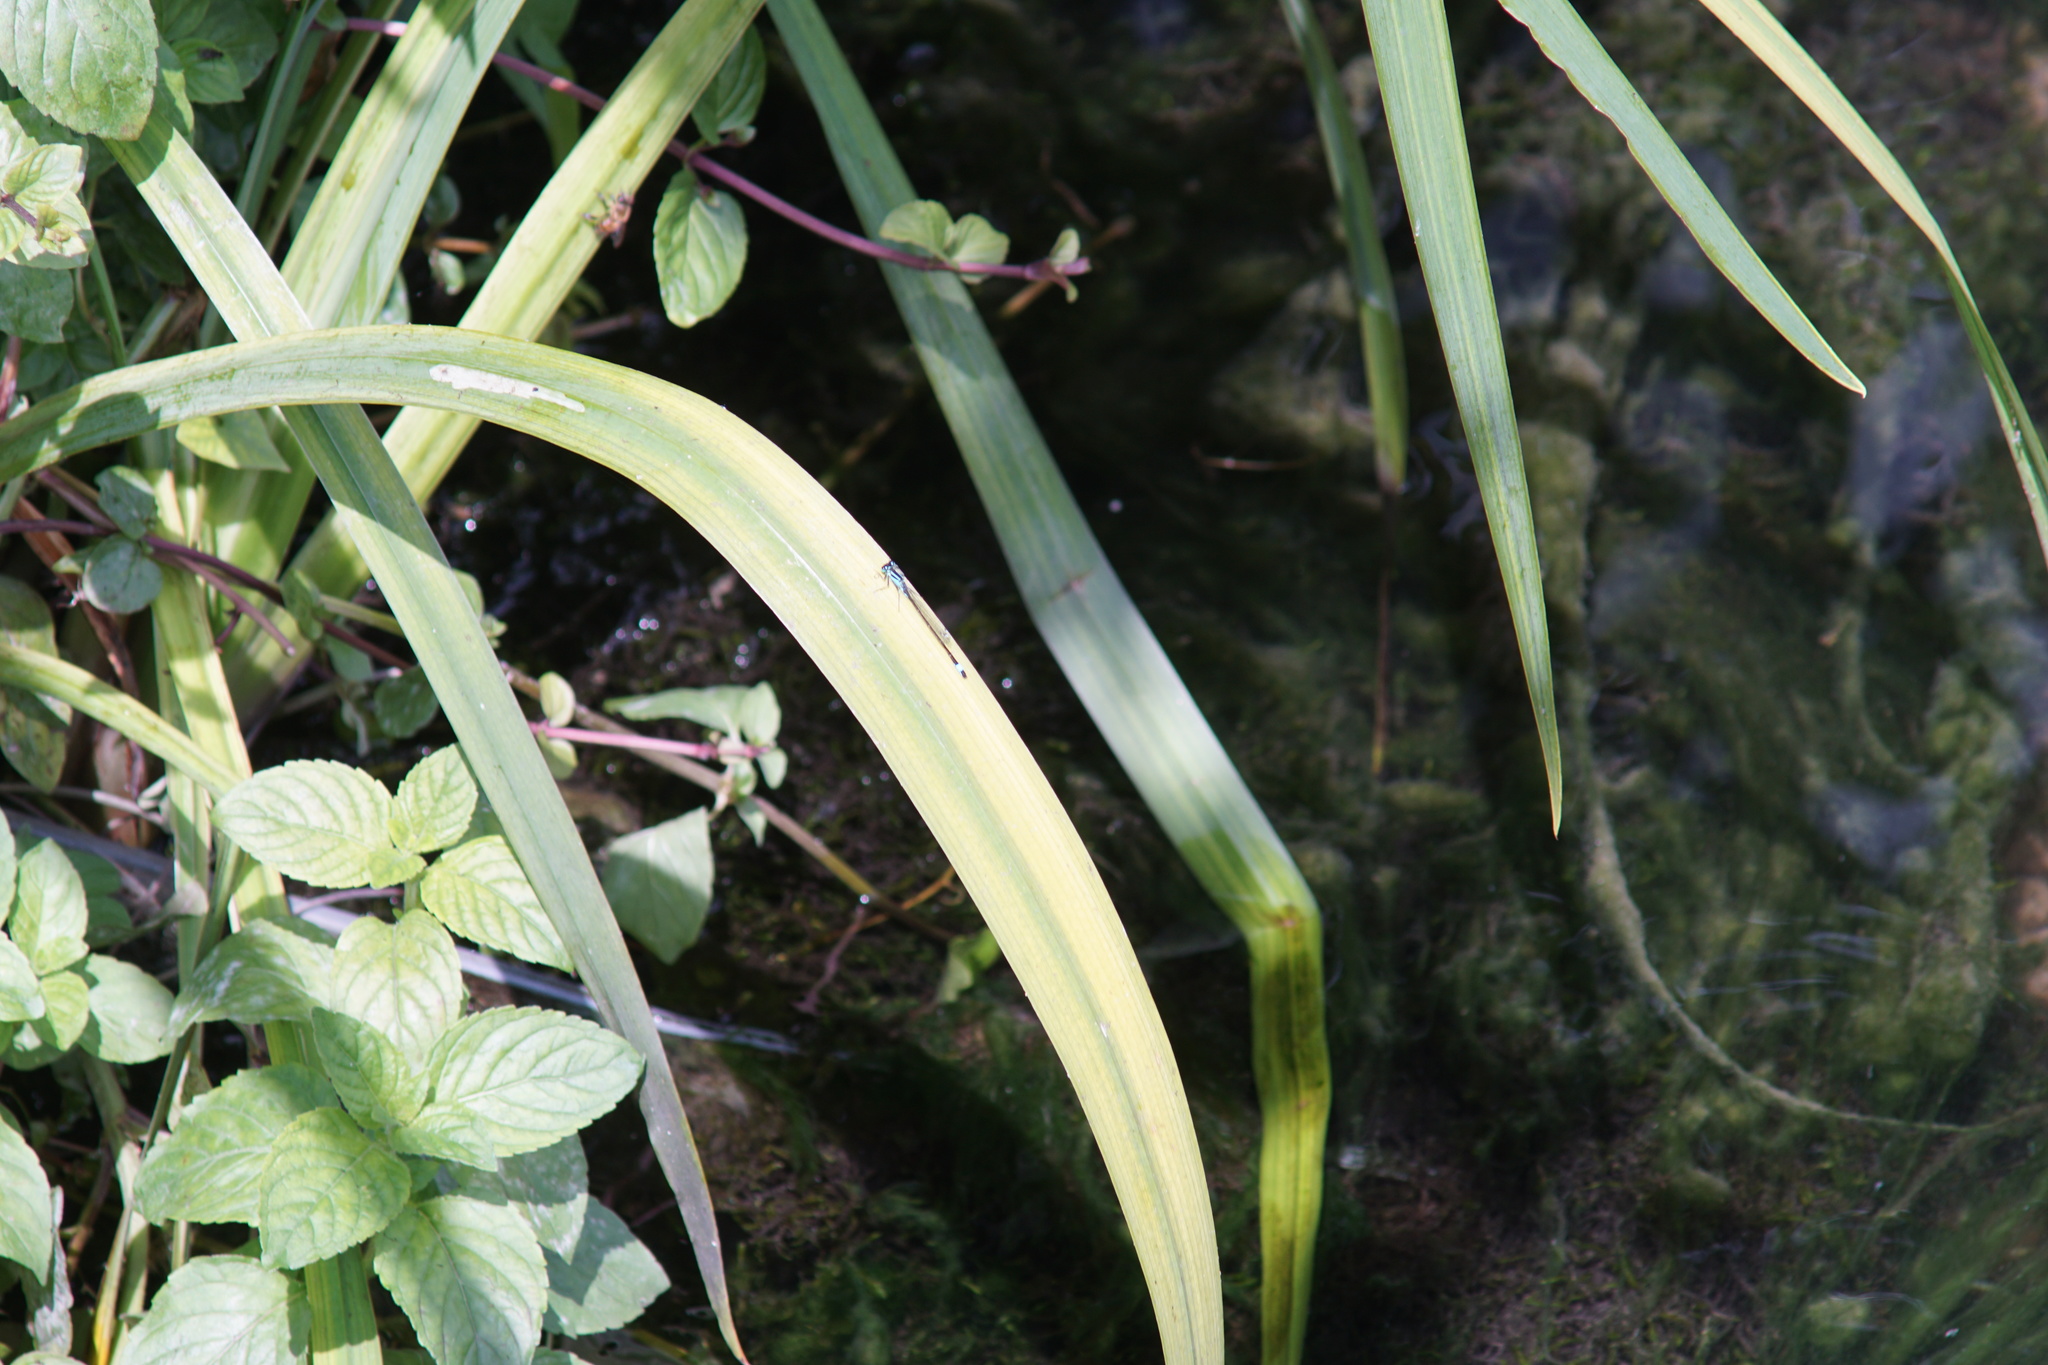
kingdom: Animalia
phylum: Arthropoda
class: Insecta
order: Odonata
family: Coenagrionidae
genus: Ischnura
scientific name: Ischnura elegans
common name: Blue-tailed damselfly
